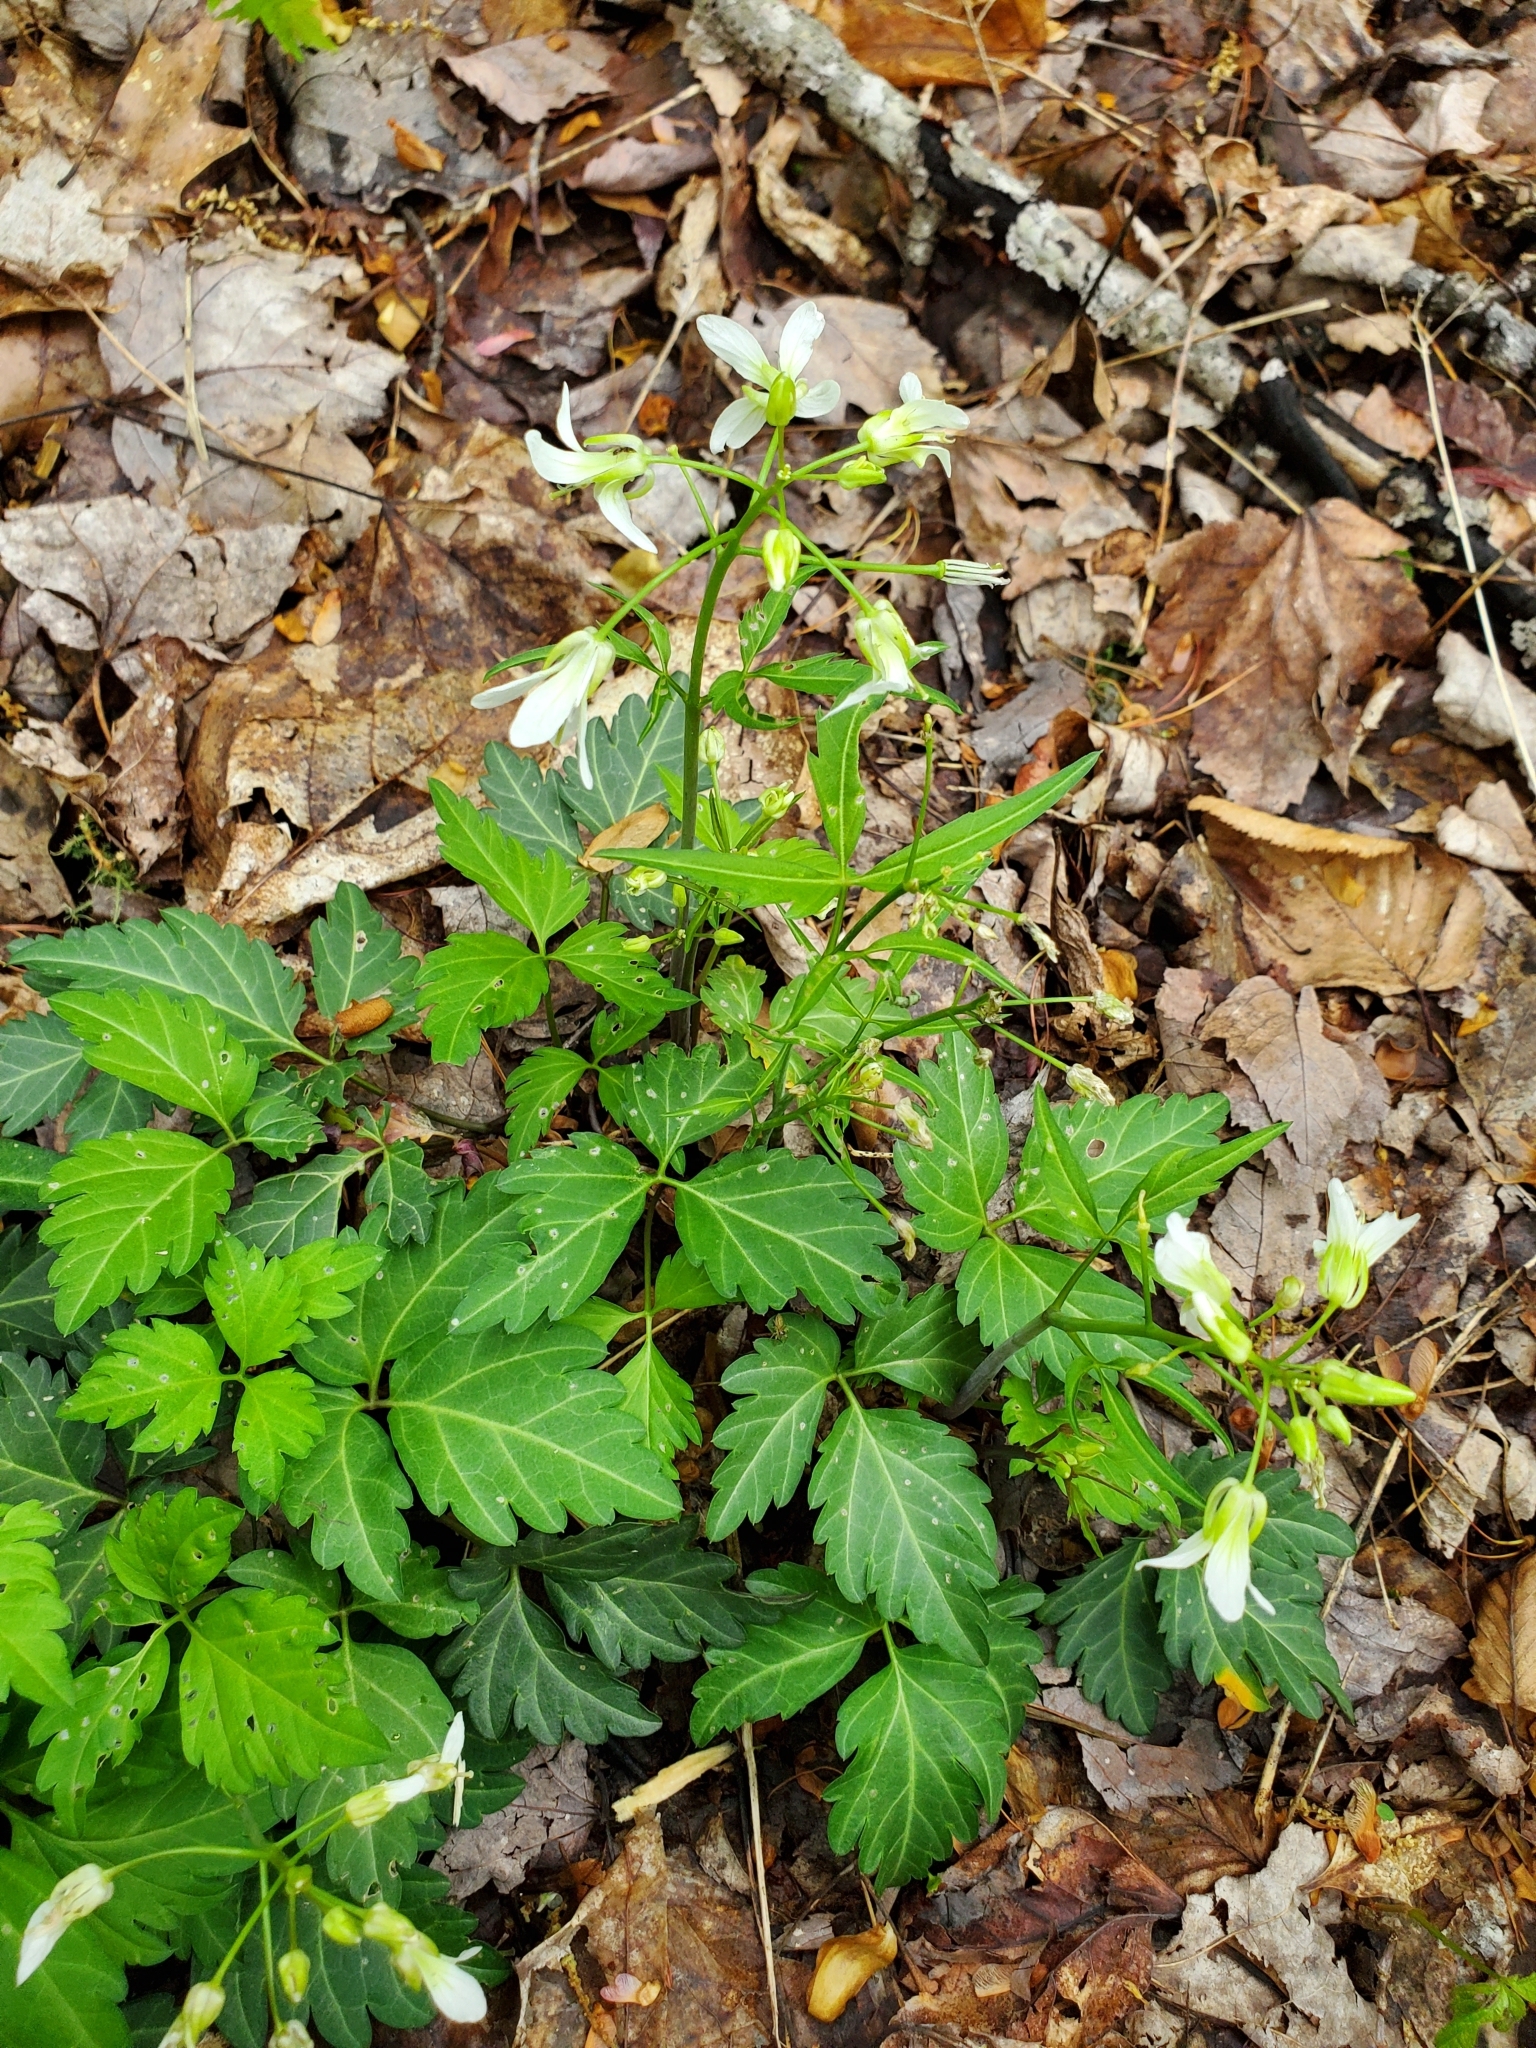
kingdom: Plantae
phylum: Tracheophyta
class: Magnoliopsida
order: Brassicales
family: Brassicaceae
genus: Cardamine
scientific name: Cardamine diphylla
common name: Broad-leaved toothwort
